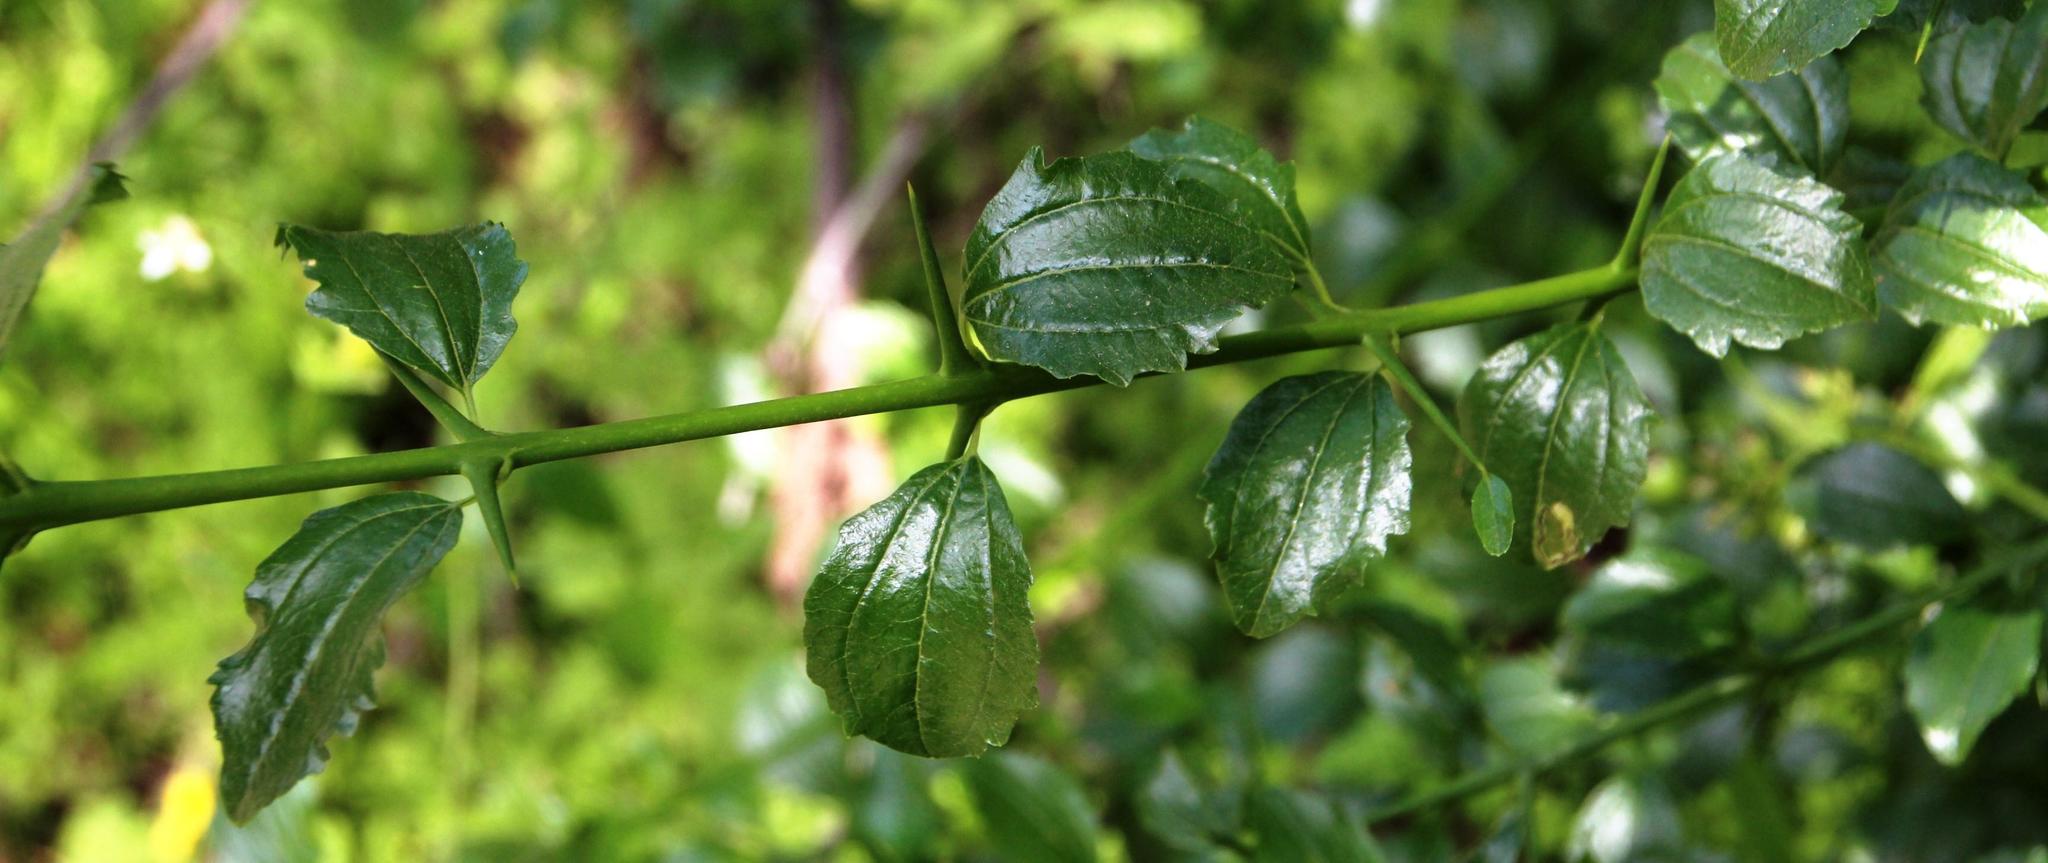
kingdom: Plantae
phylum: Tracheophyta
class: Magnoliopsida
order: Rosales
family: Rhamnaceae
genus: Retanilla
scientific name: Retanilla trinervia
